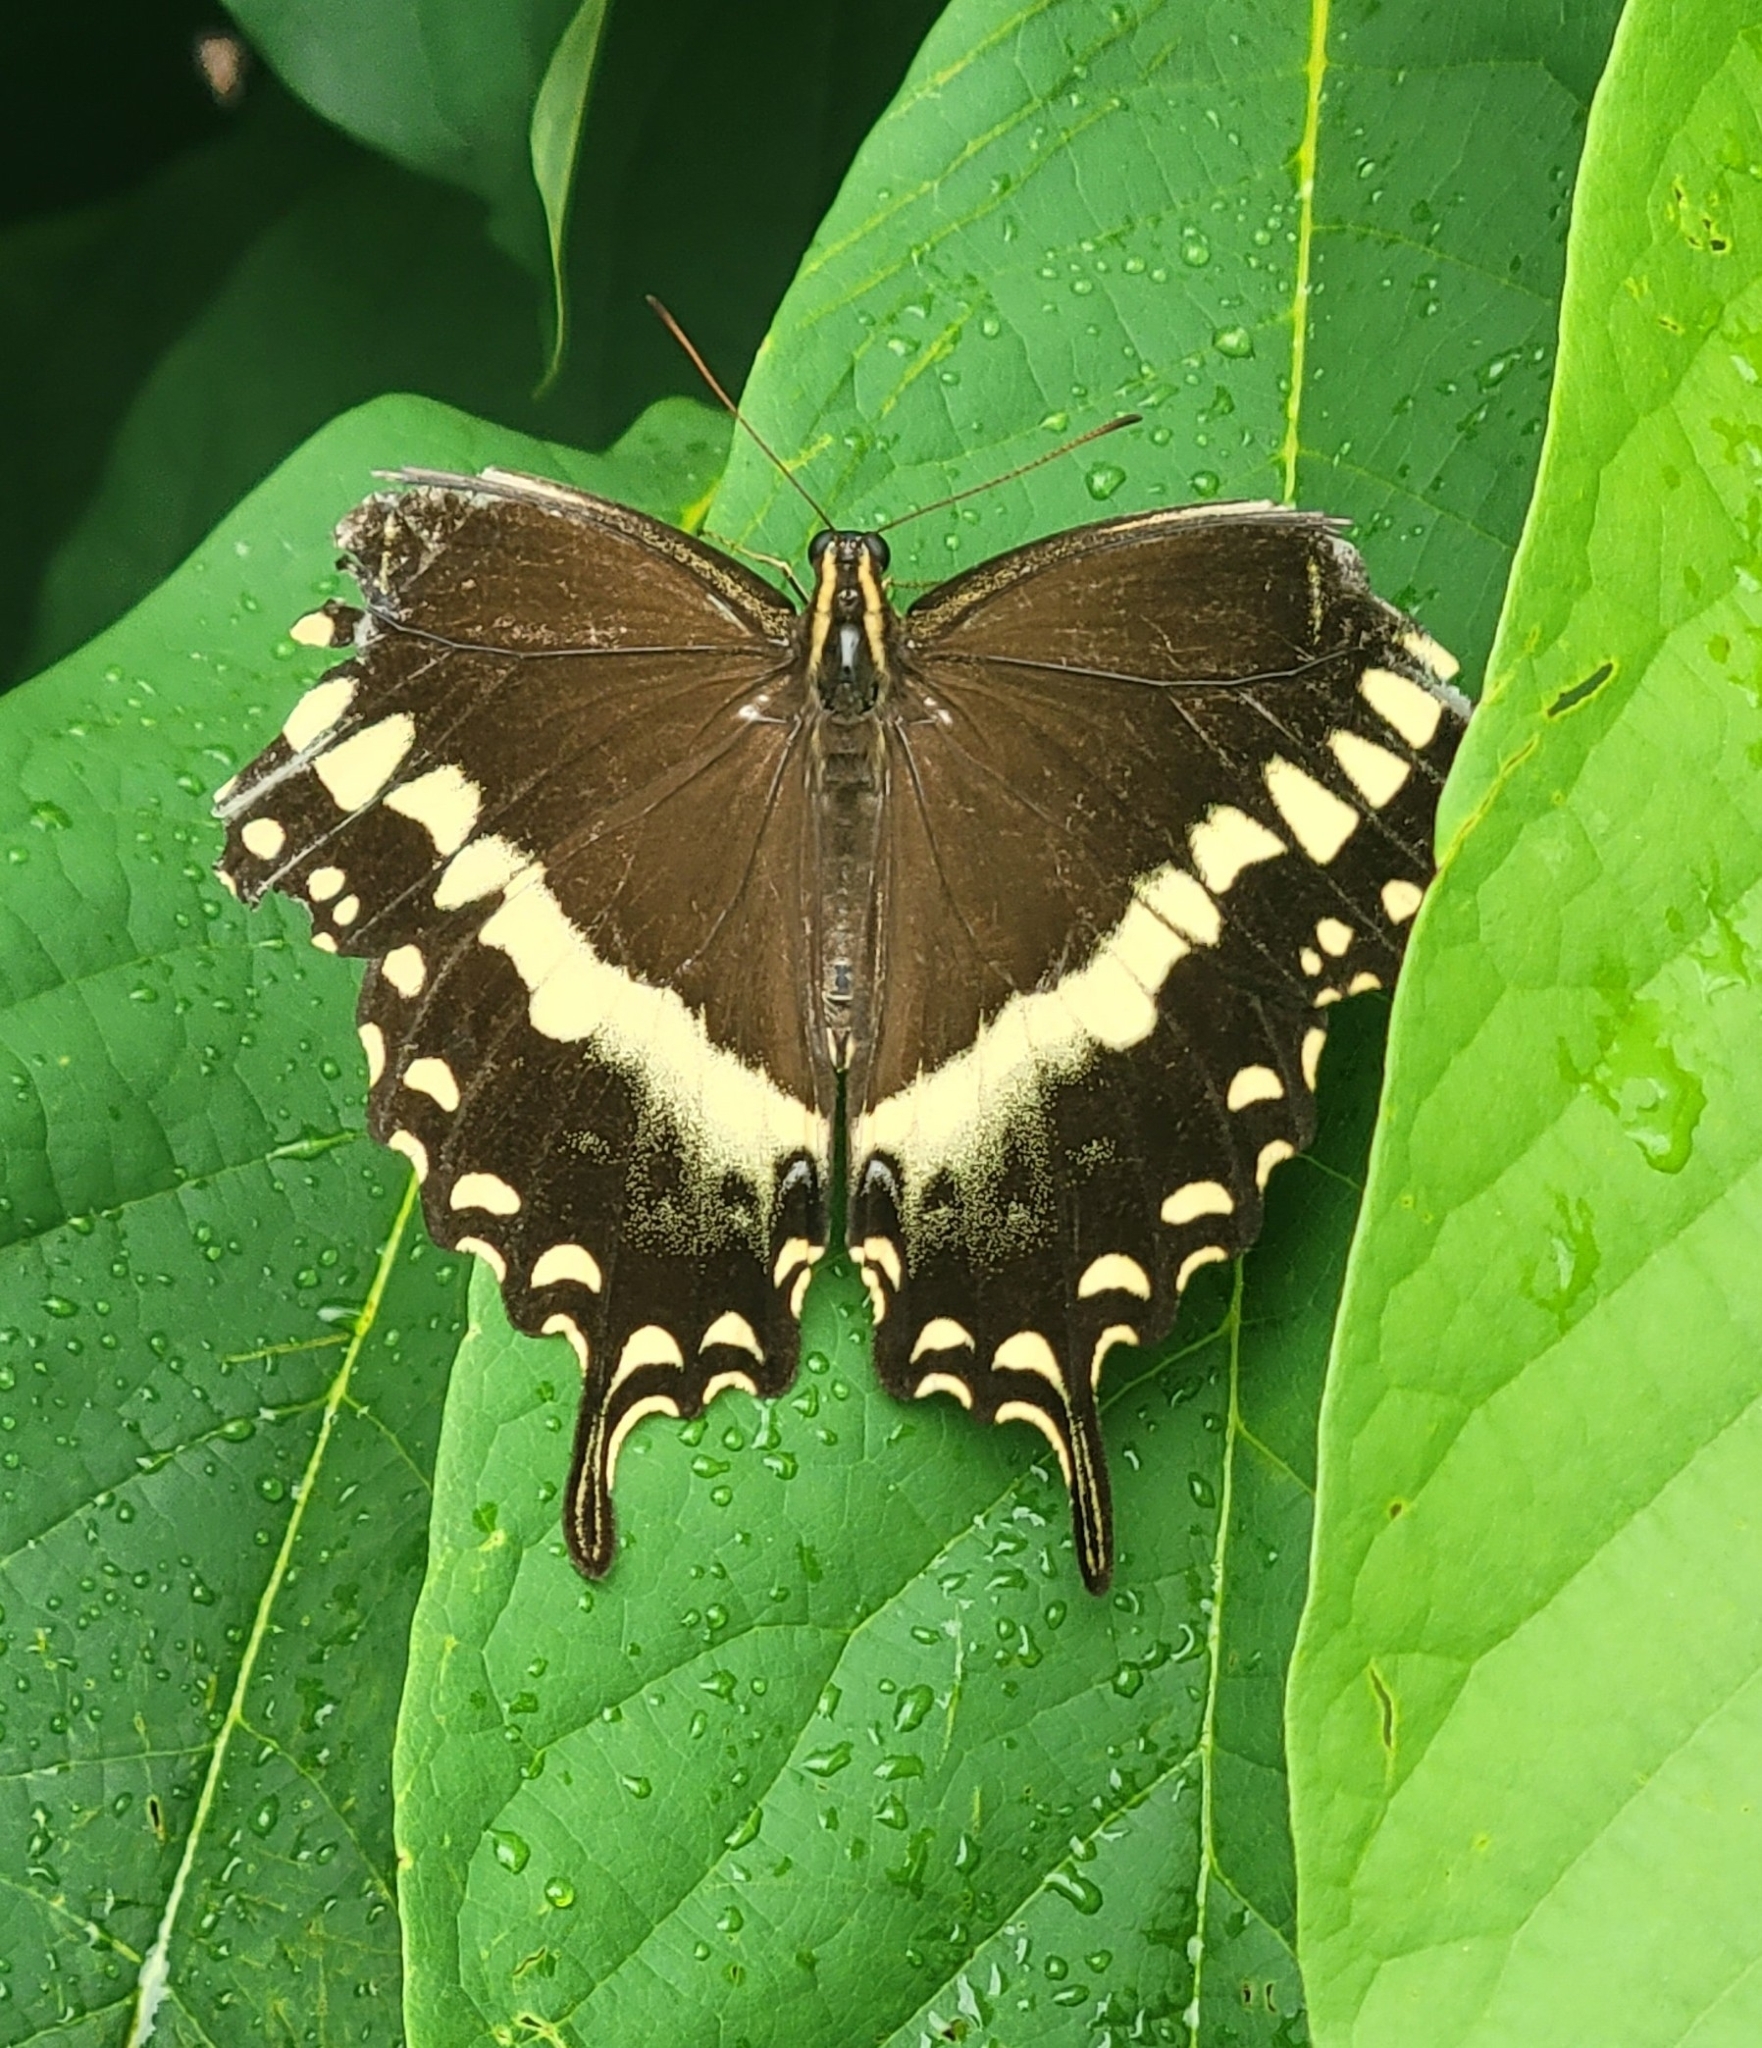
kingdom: Animalia
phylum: Arthropoda
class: Insecta
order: Lepidoptera
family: Papilionidae
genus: Papilio
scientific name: Papilio palamedes
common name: Palamedes swallowtail
